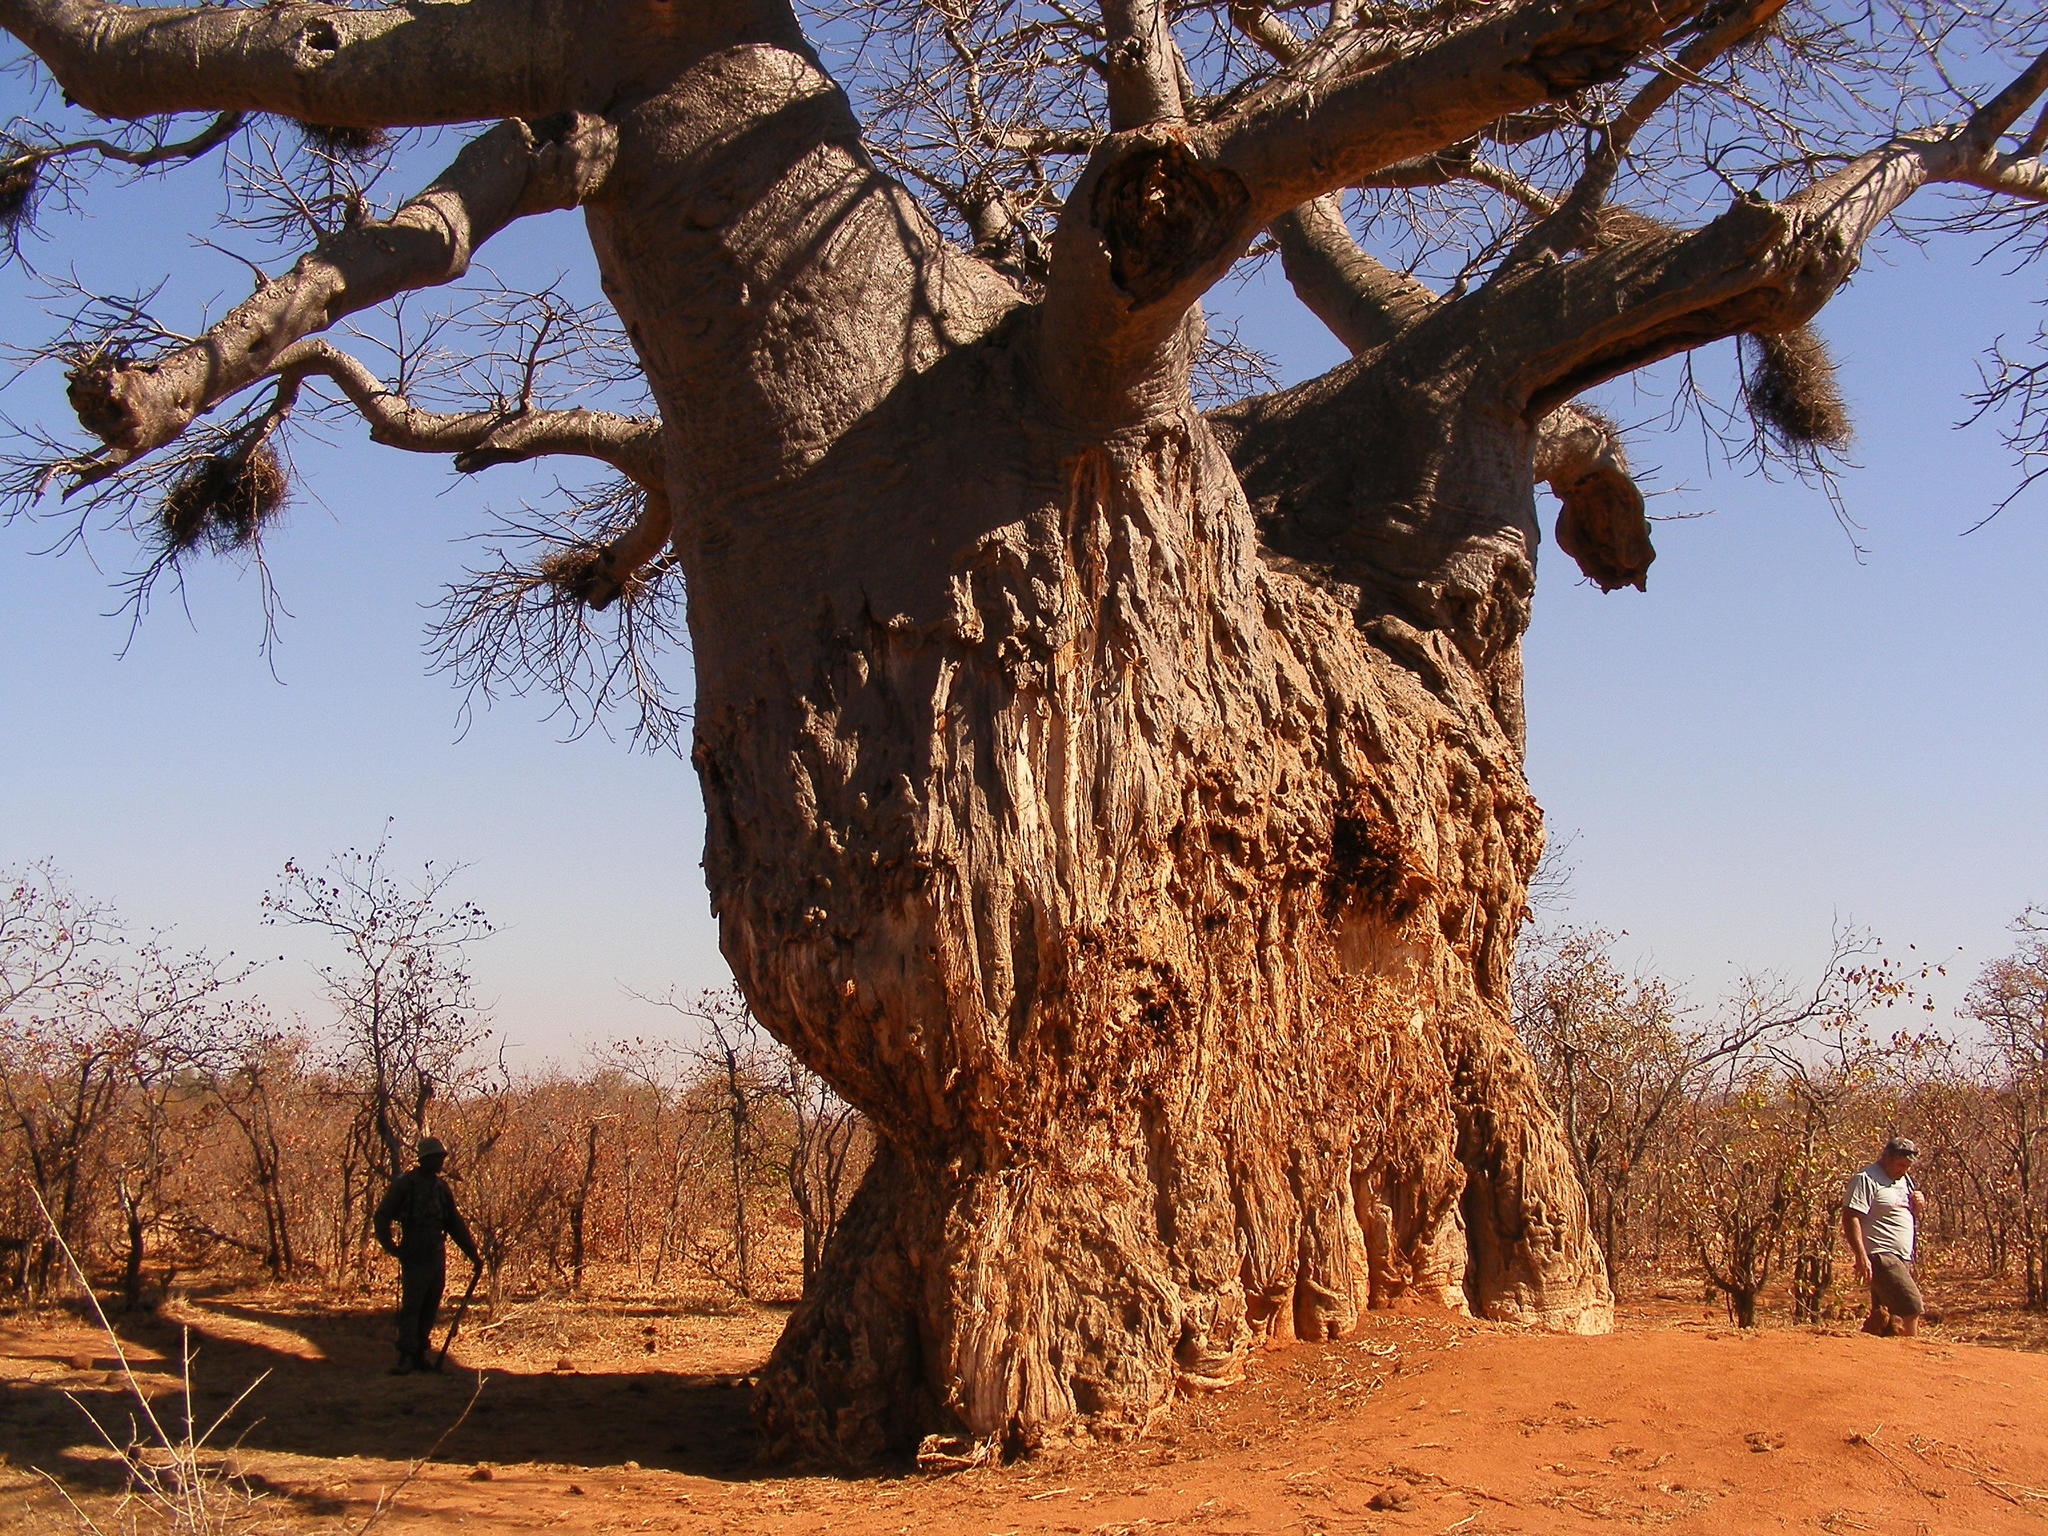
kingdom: Plantae
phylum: Tracheophyta
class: Magnoliopsida
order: Malvales
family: Malvaceae
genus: Adansonia
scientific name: Adansonia digitata
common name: Dead-rat-tree
